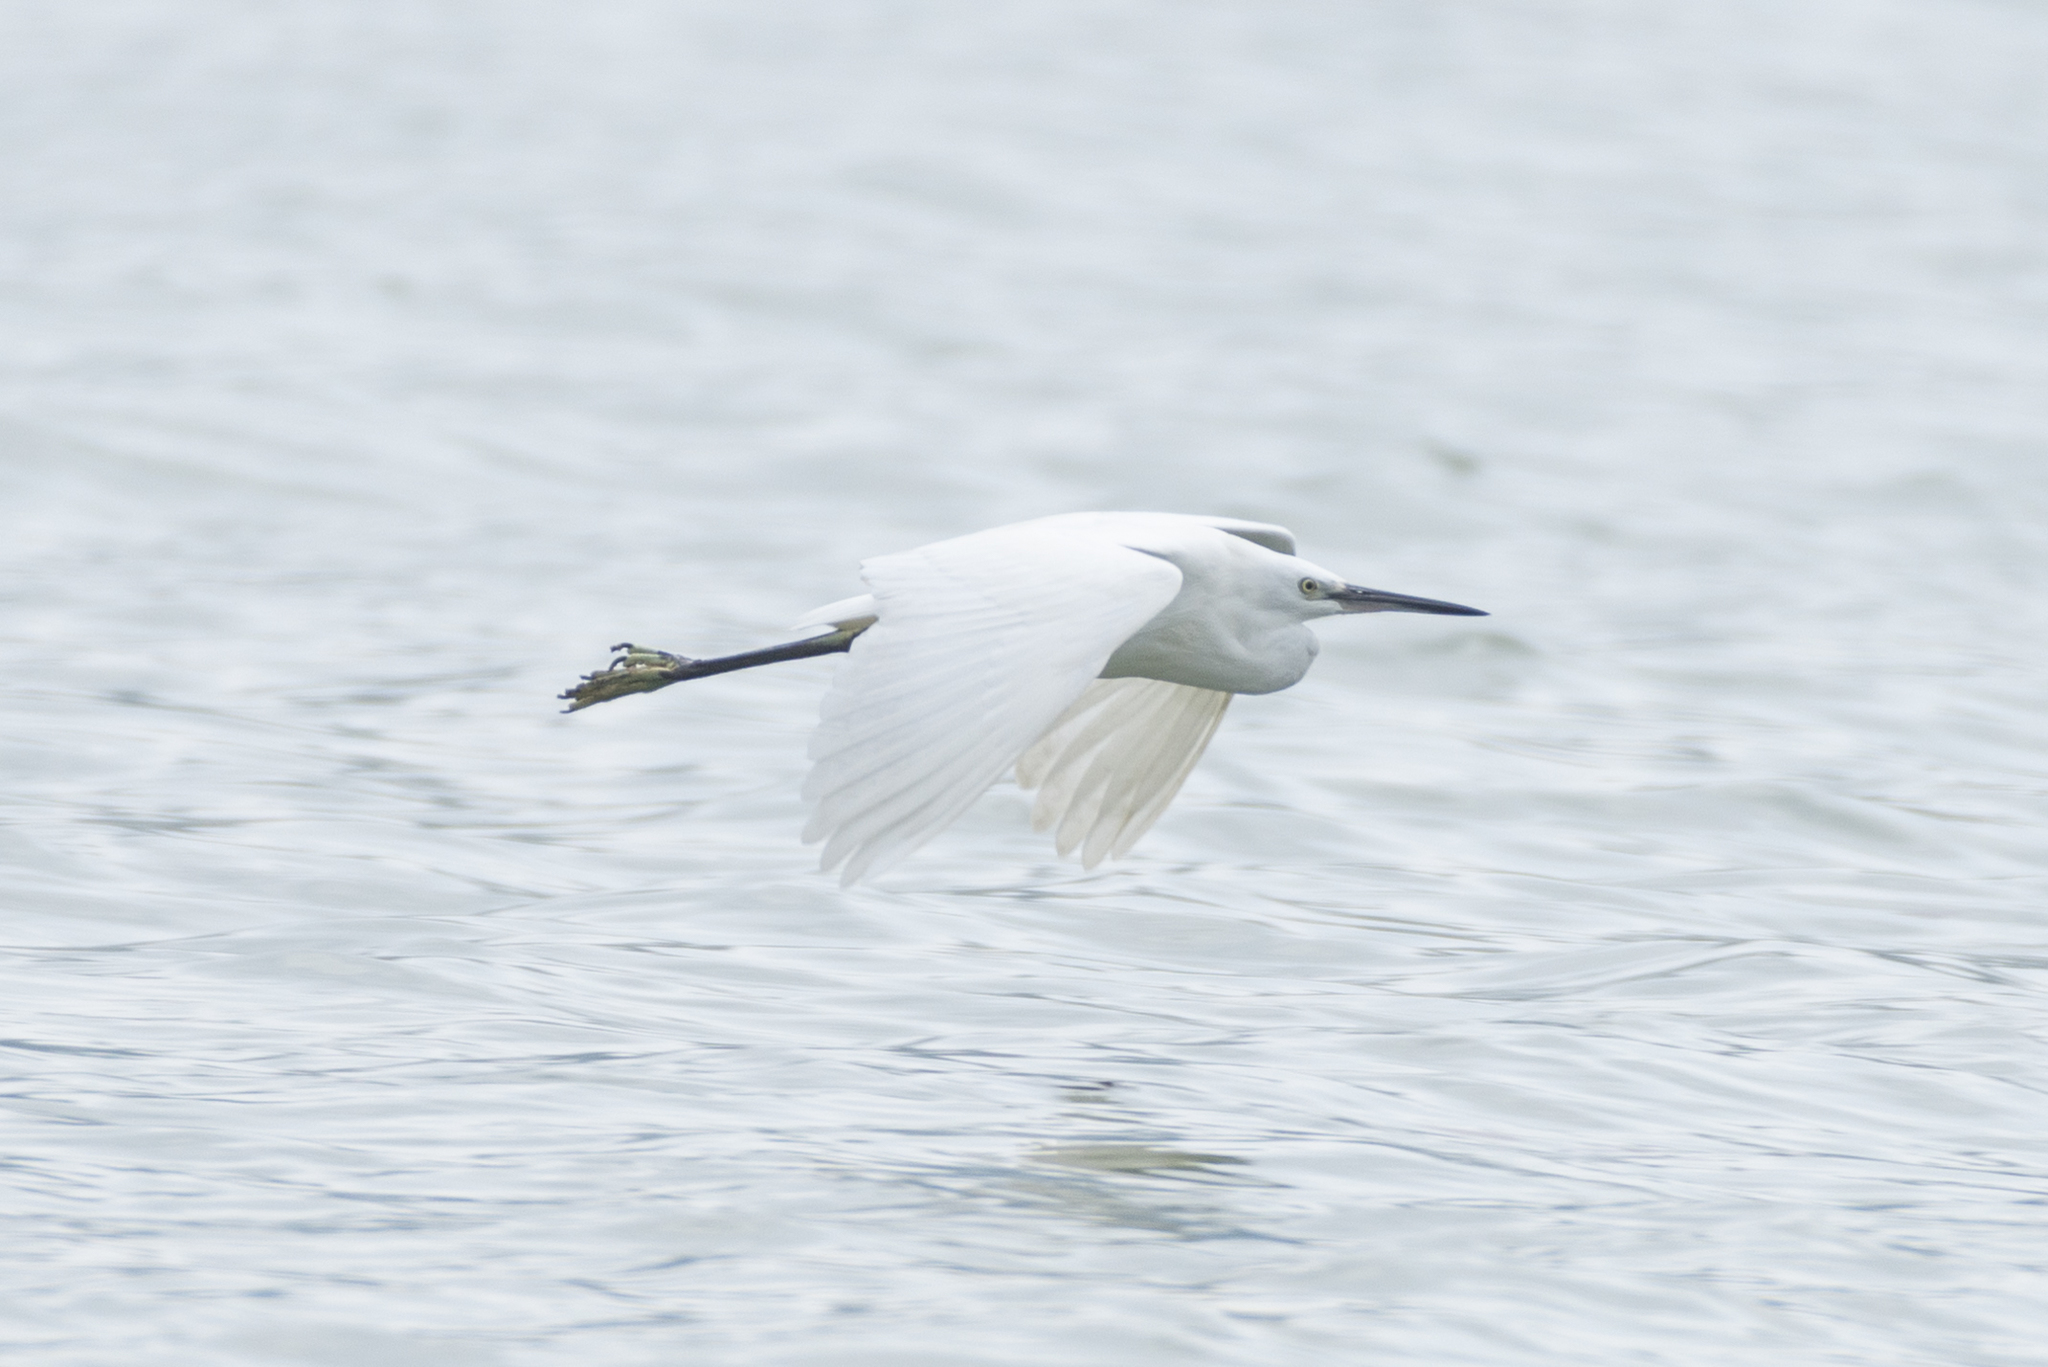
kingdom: Animalia
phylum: Chordata
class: Aves
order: Pelecaniformes
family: Ardeidae
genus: Egretta
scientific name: Egretta garzetta
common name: Little egret
